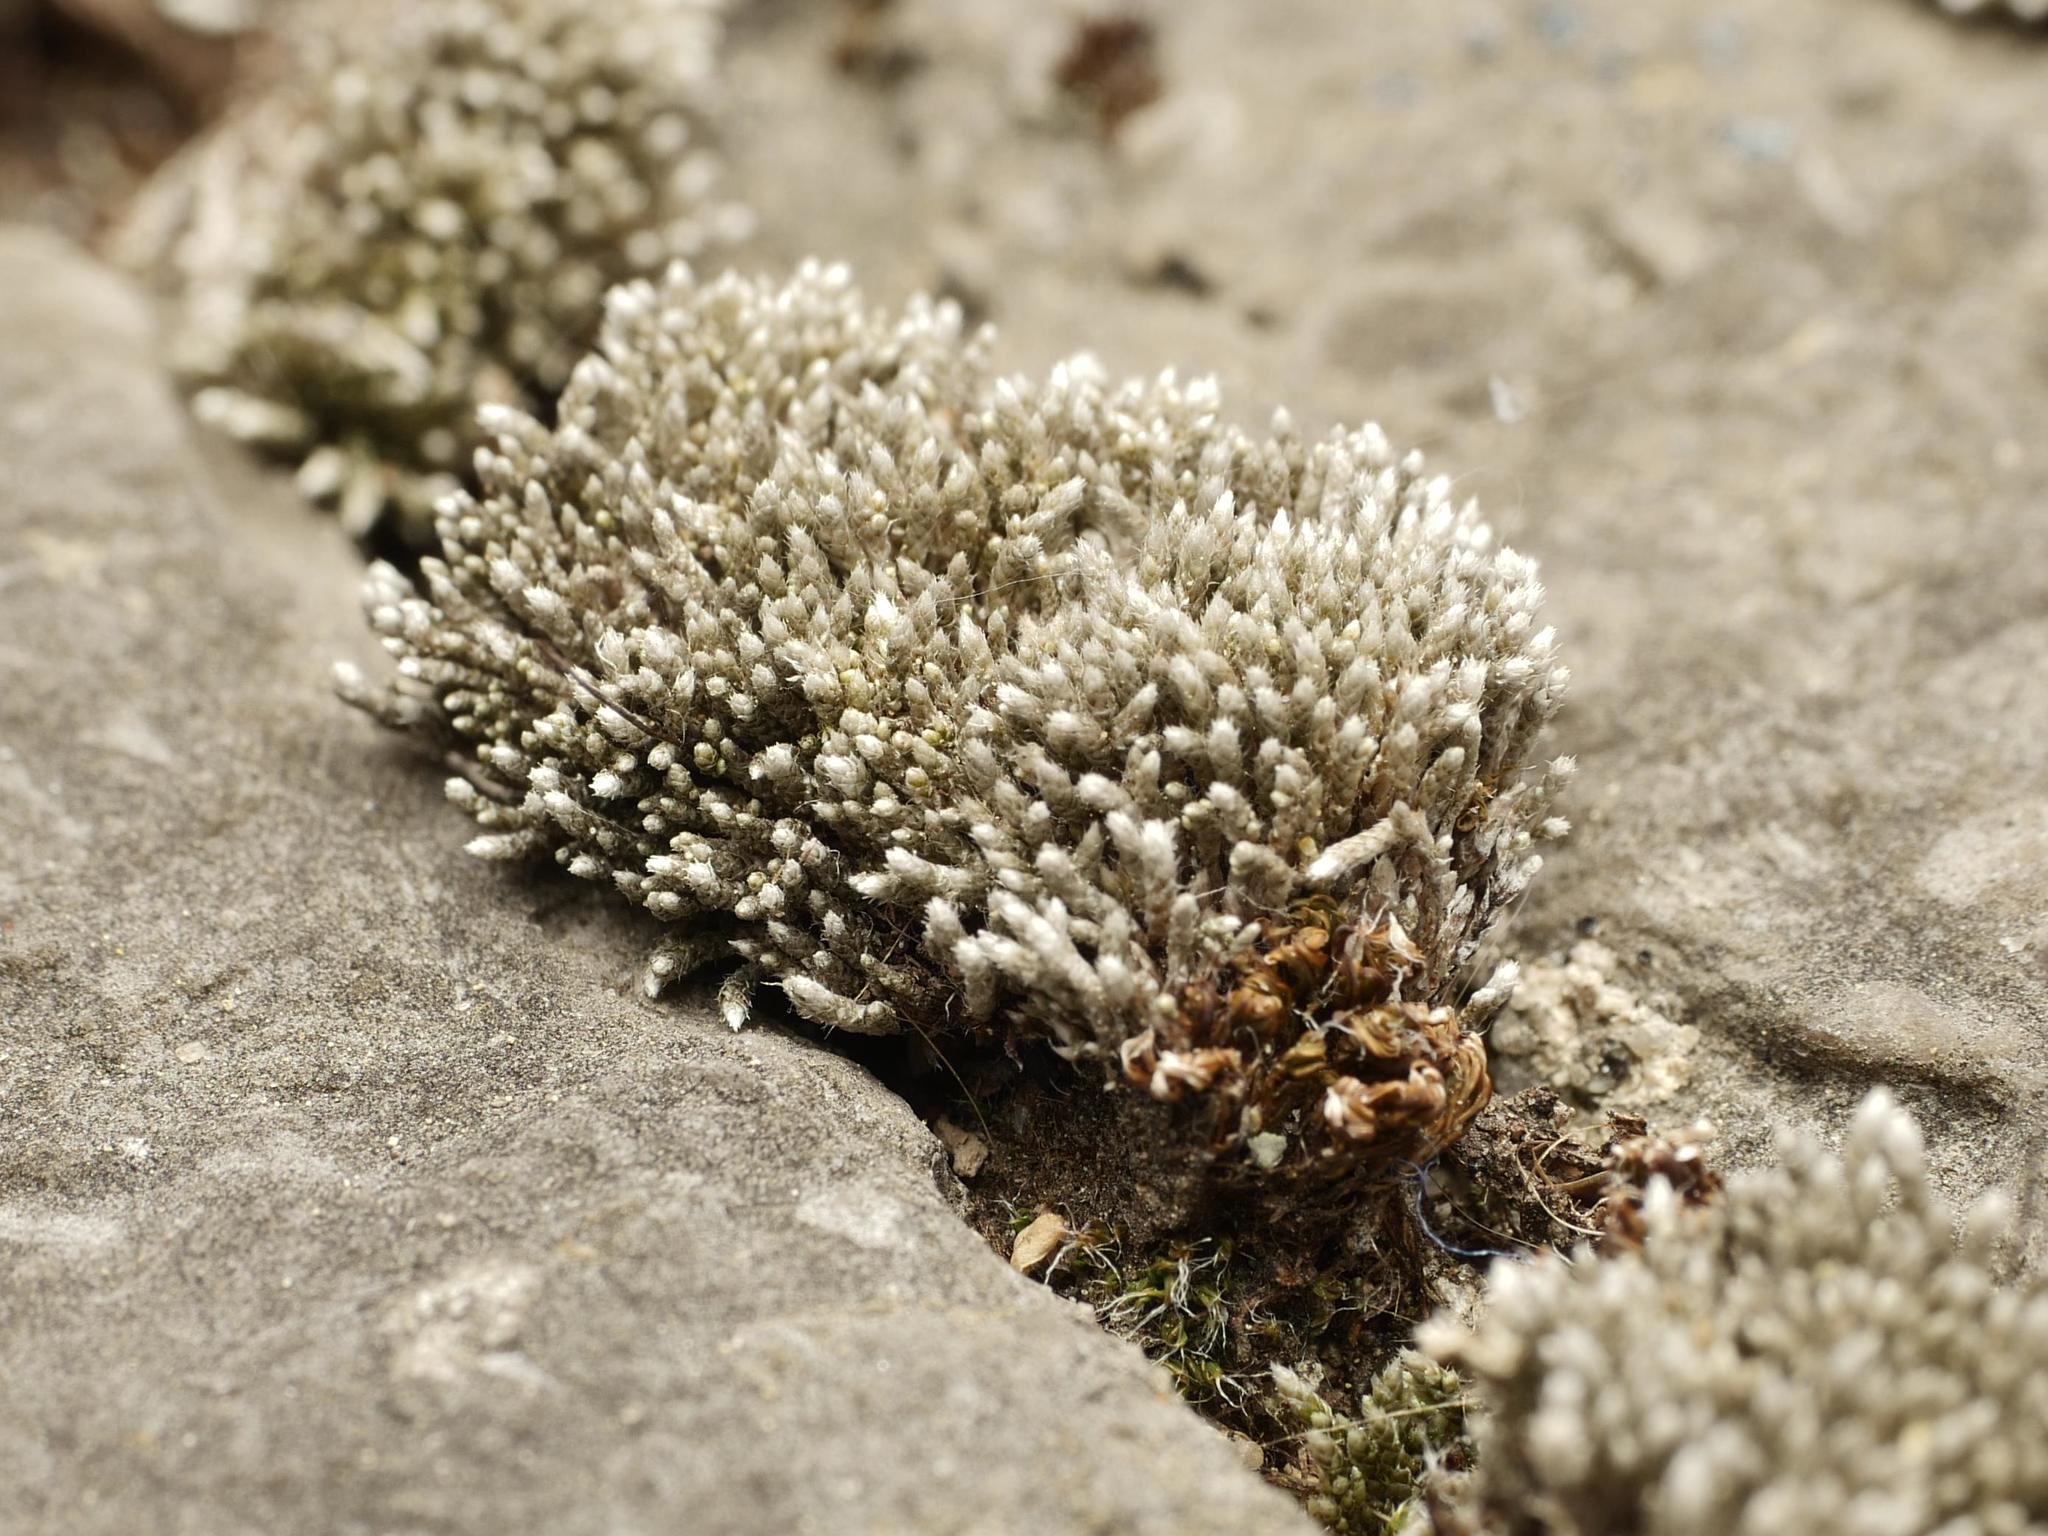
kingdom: Plantae
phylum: Bryophyta
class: Bryopsida
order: Bryales
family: Bryaceae
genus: Bryum
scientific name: Bryum argenteum
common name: Silver-moss
